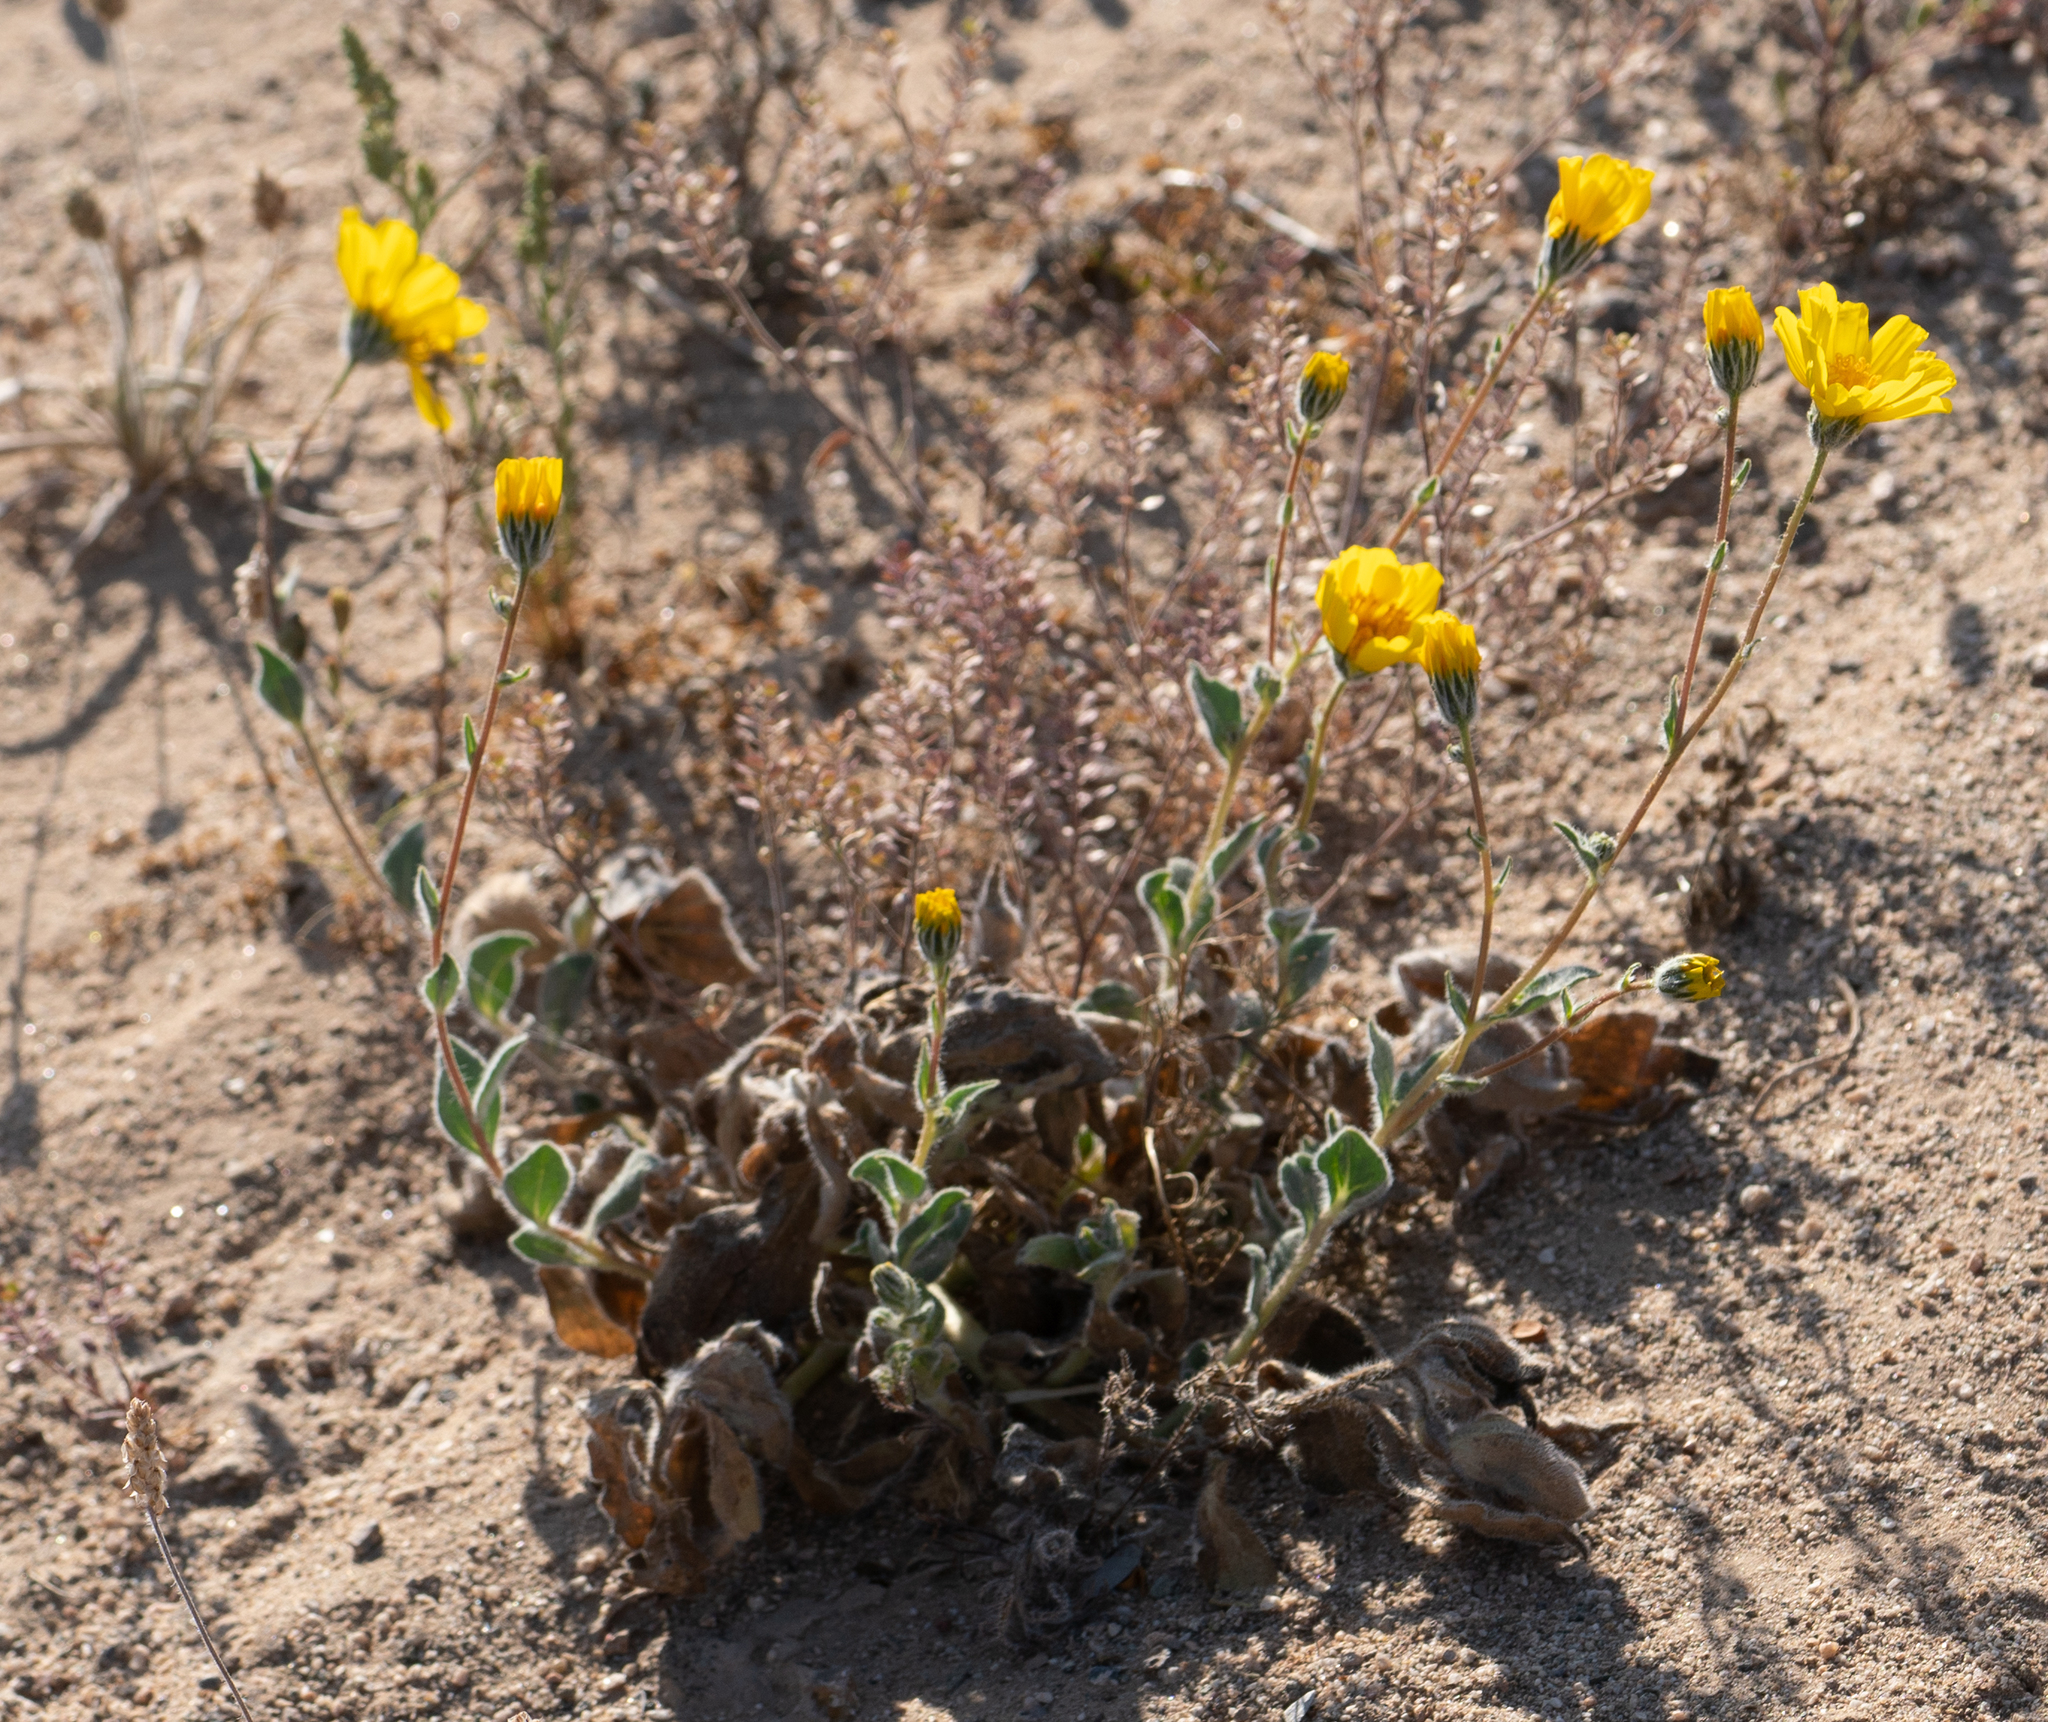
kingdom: Plantae
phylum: Tracheophyta
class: Magnoliopsida
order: Asterales
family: Asteraceae
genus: Geraea
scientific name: Geraea canescens
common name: Desert-gold
